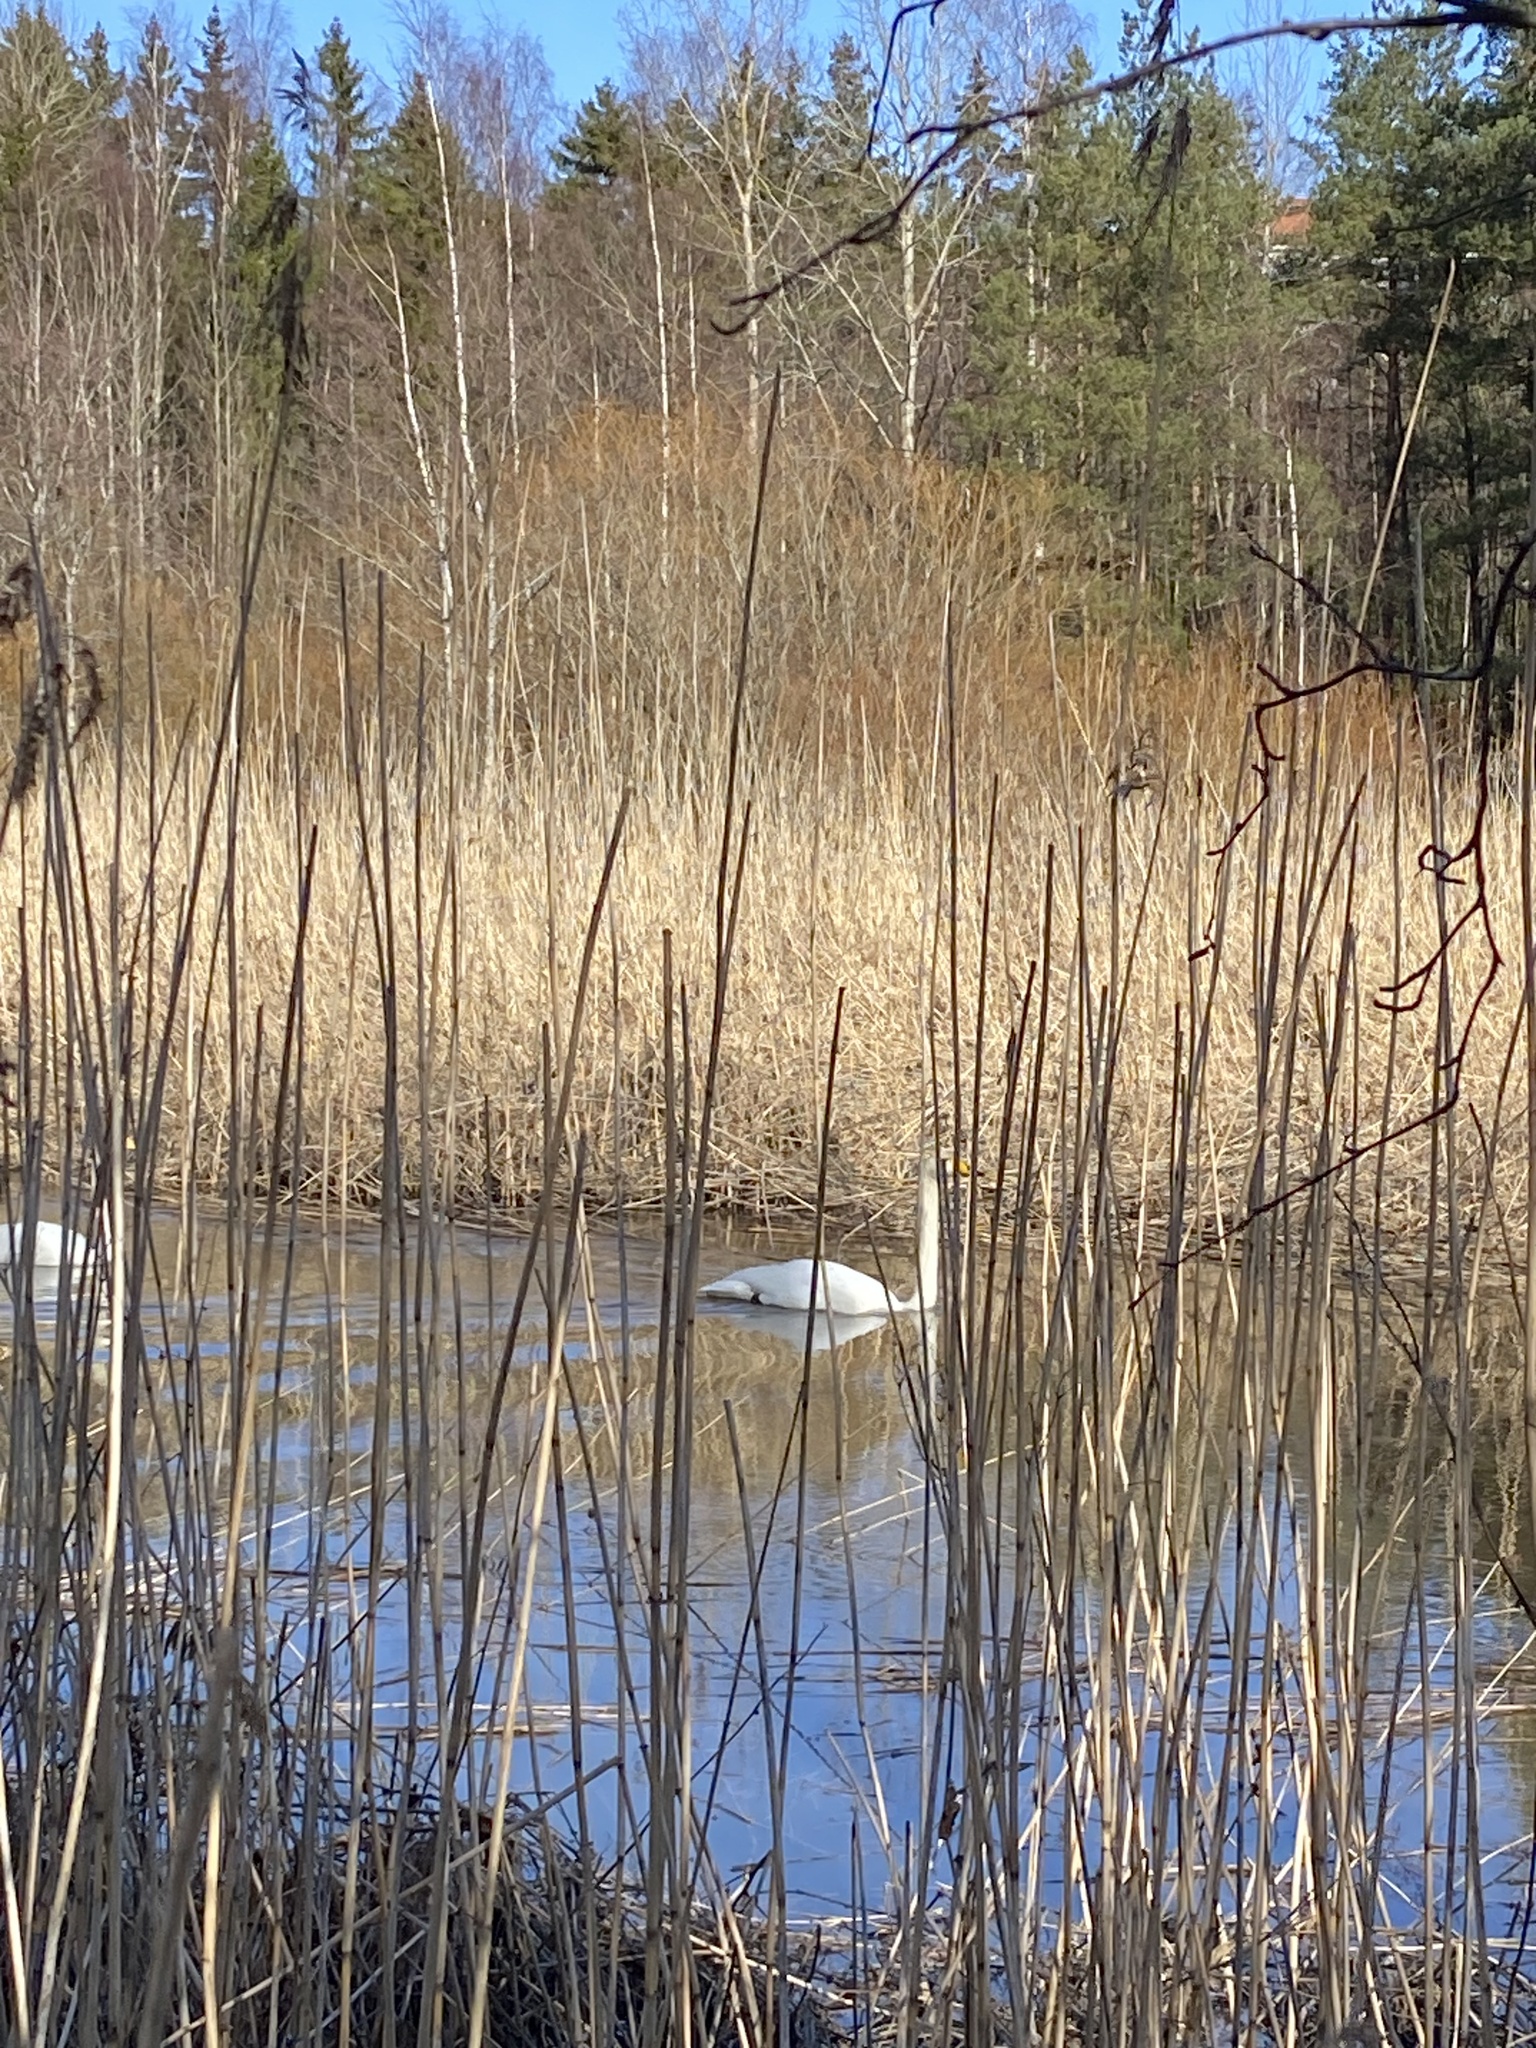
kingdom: Animalia
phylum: Chordata
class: Aves
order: Anseriformes
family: Anatidae
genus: Cygnus
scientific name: Cygnus cygnus
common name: Whooper swan
